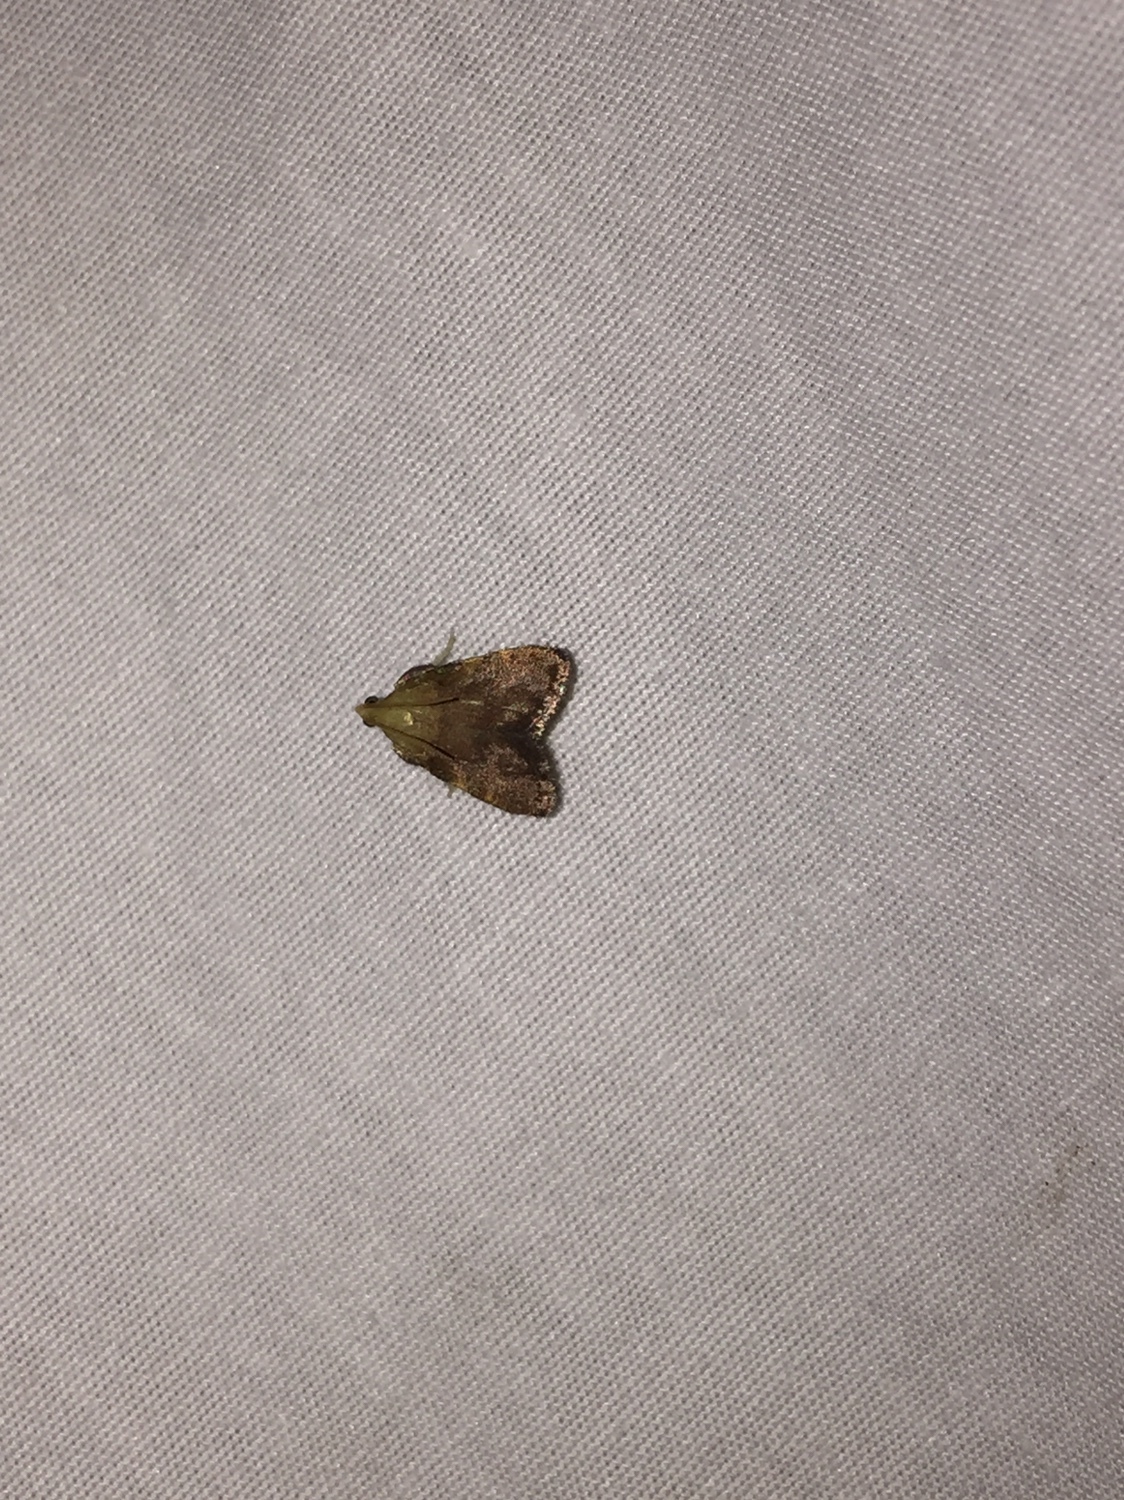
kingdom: Animalia
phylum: Arthropoda
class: Insecta
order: Lepidoptera
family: Pyralidae
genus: Condylolomia
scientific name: Condylolomia participialis
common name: Drab condylolomia moth
